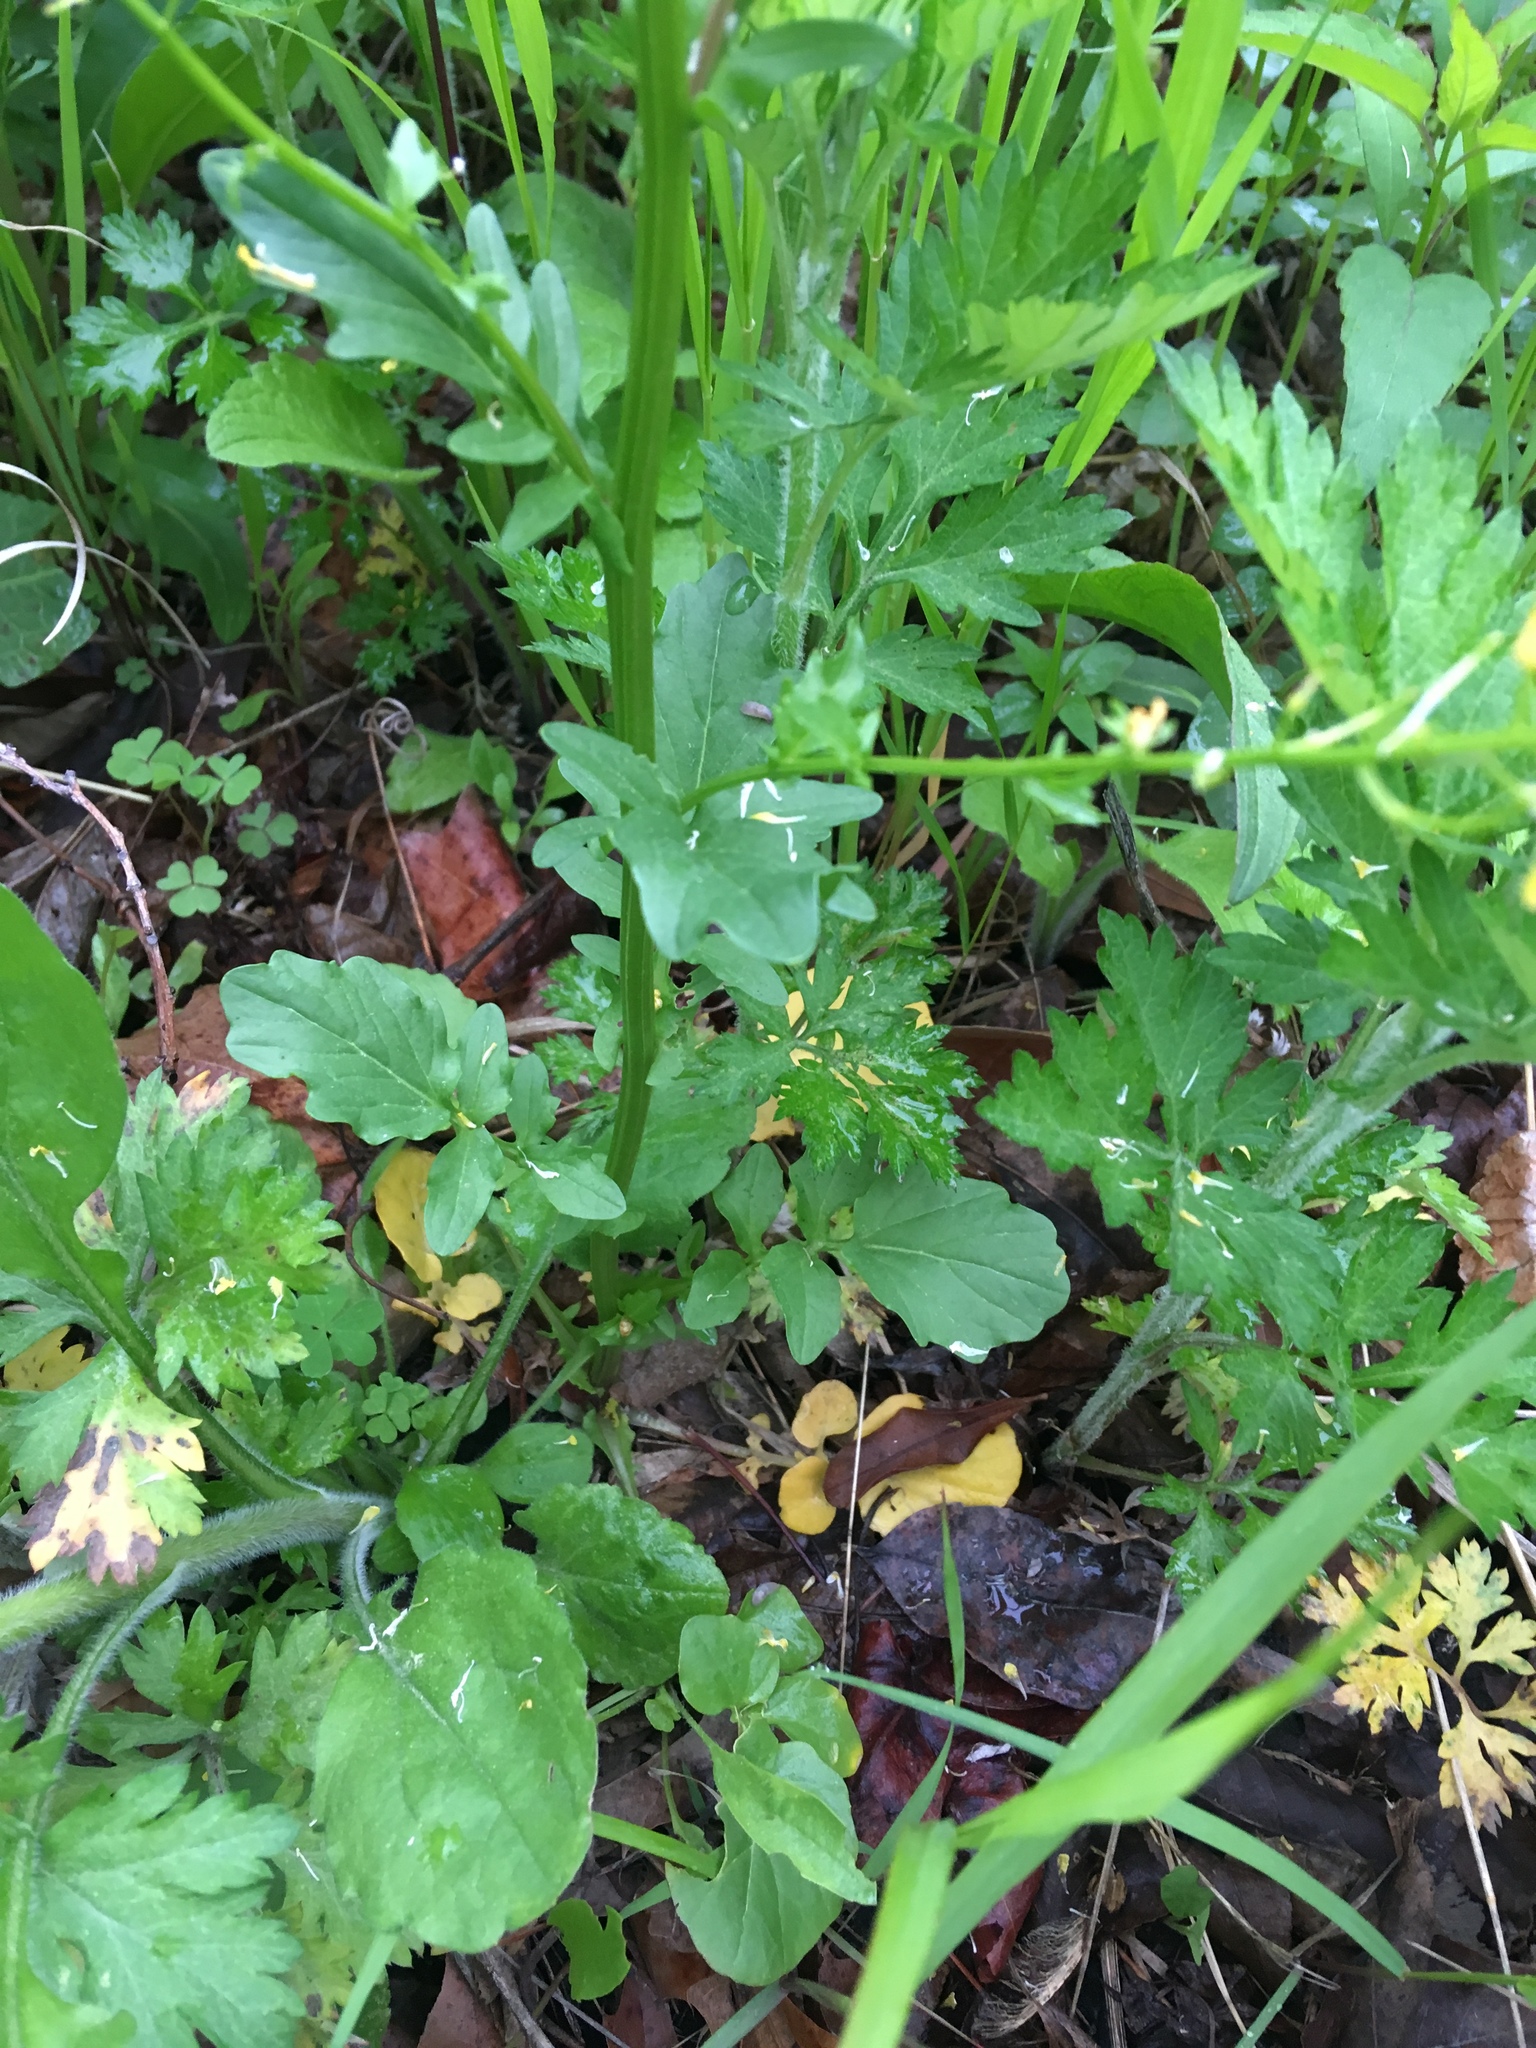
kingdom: Plantae
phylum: Tracheophyta
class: Magnoliopsida
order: Brassicales
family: Brassicaceae
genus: Barbarea
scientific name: Barbarea vulgaris
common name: Cressy-greens
